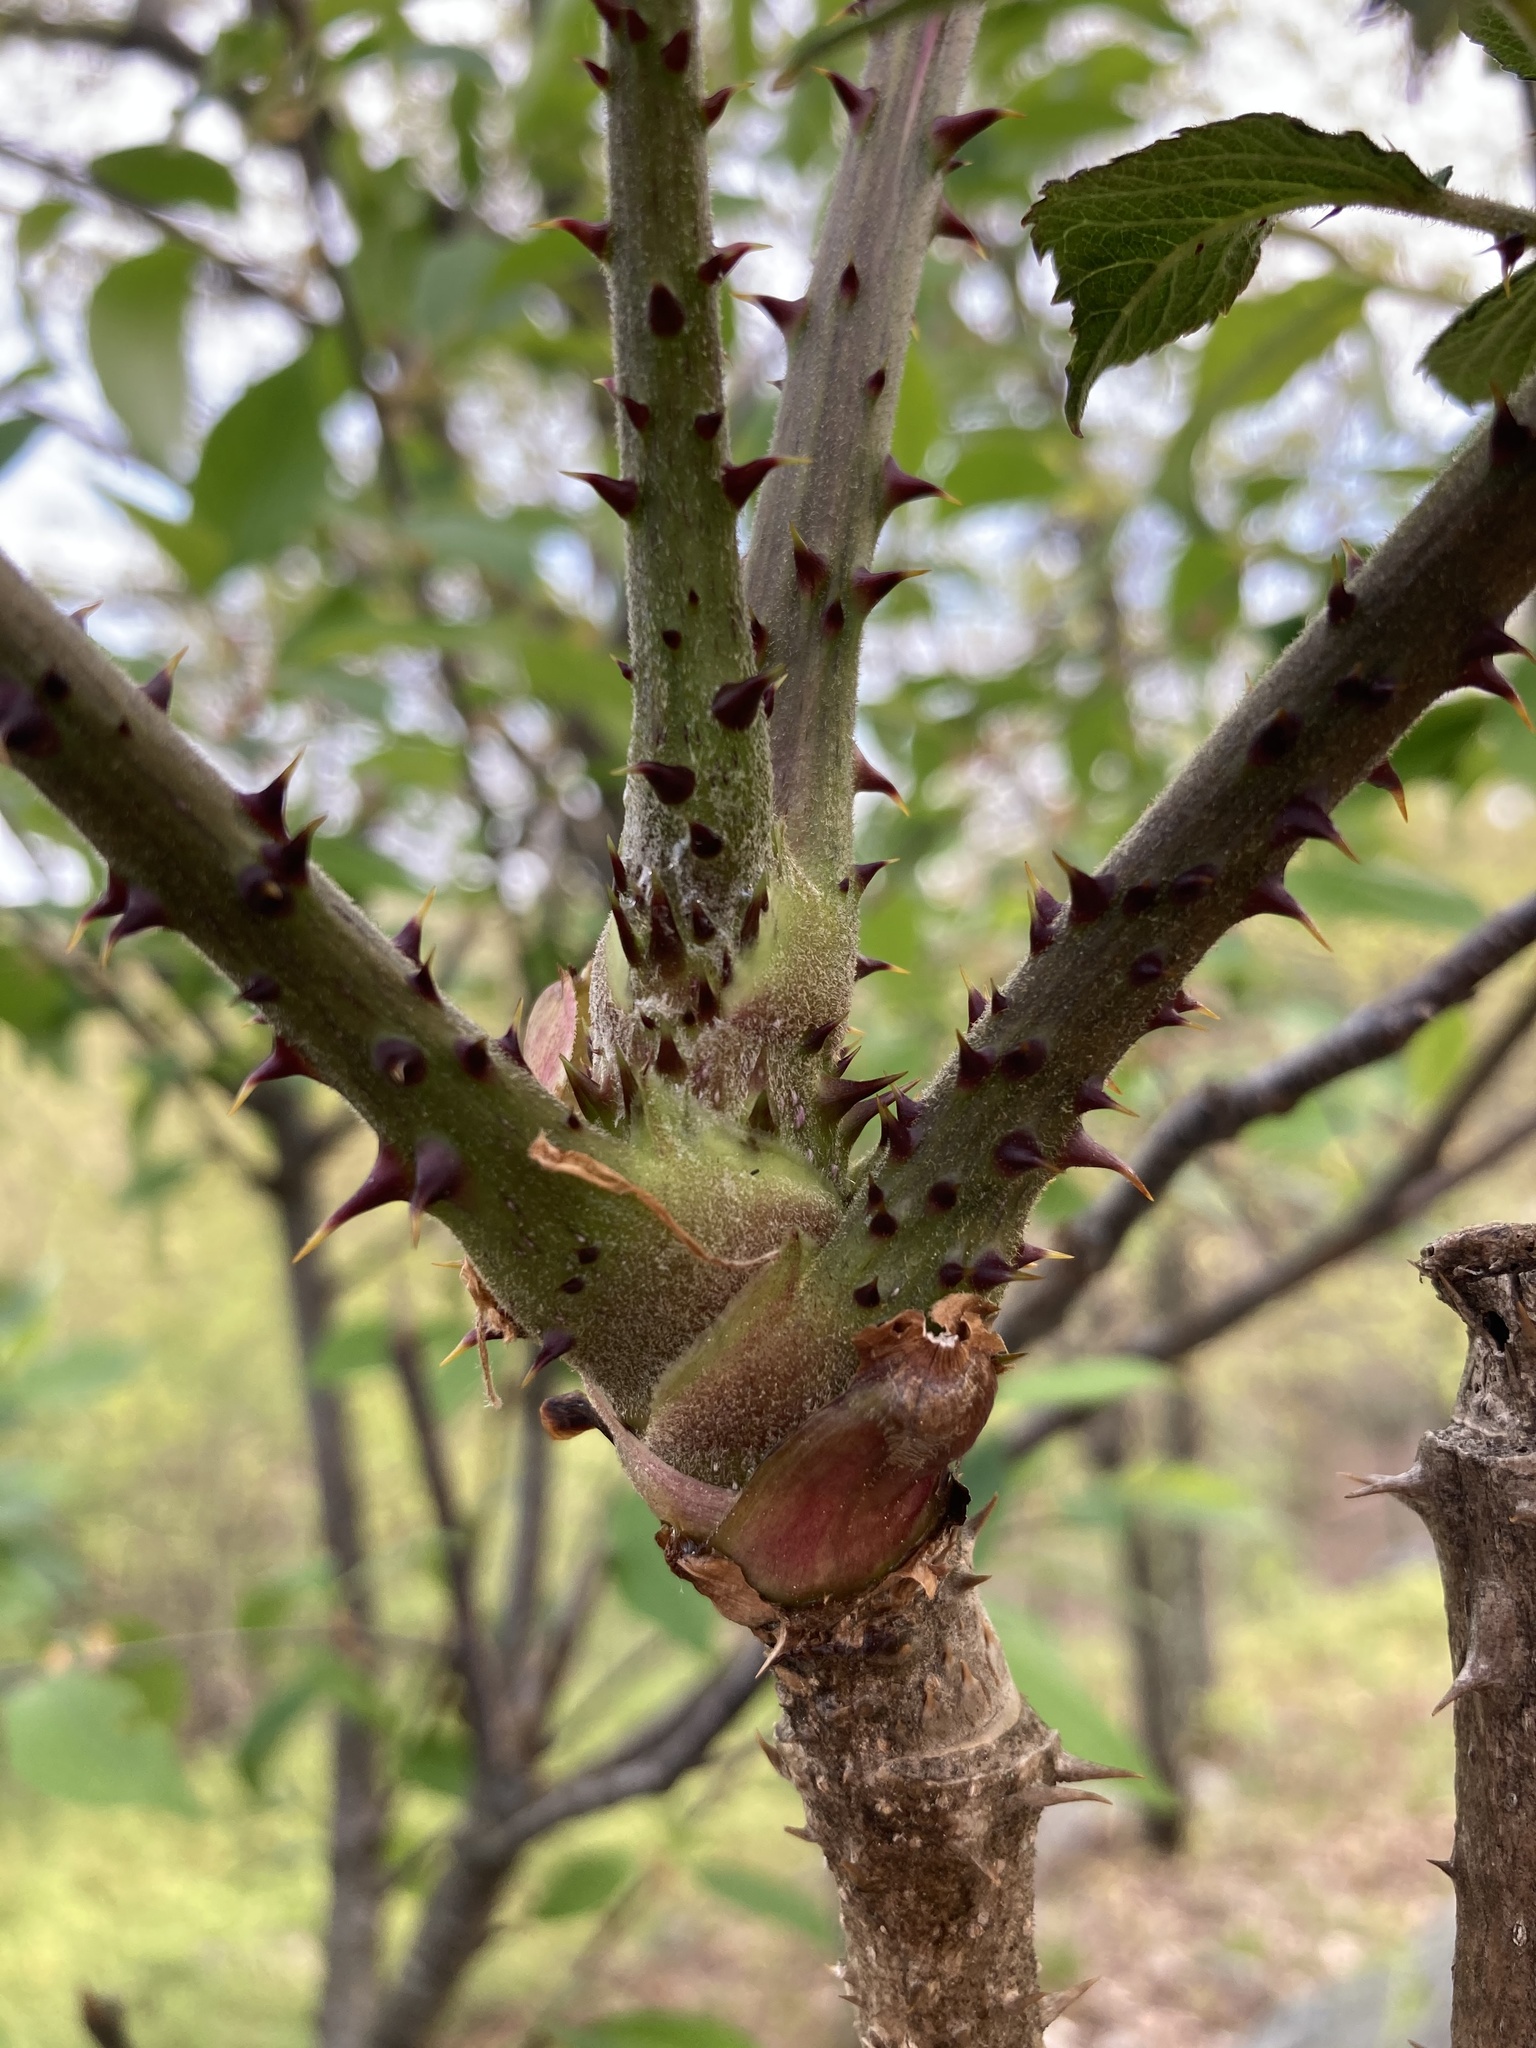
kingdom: Plantae
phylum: Tracheophyta
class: Magnoliopsida
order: Apiales
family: Araliaceae
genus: Aralia
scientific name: Aralia elata
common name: Japanese angelica-tree
